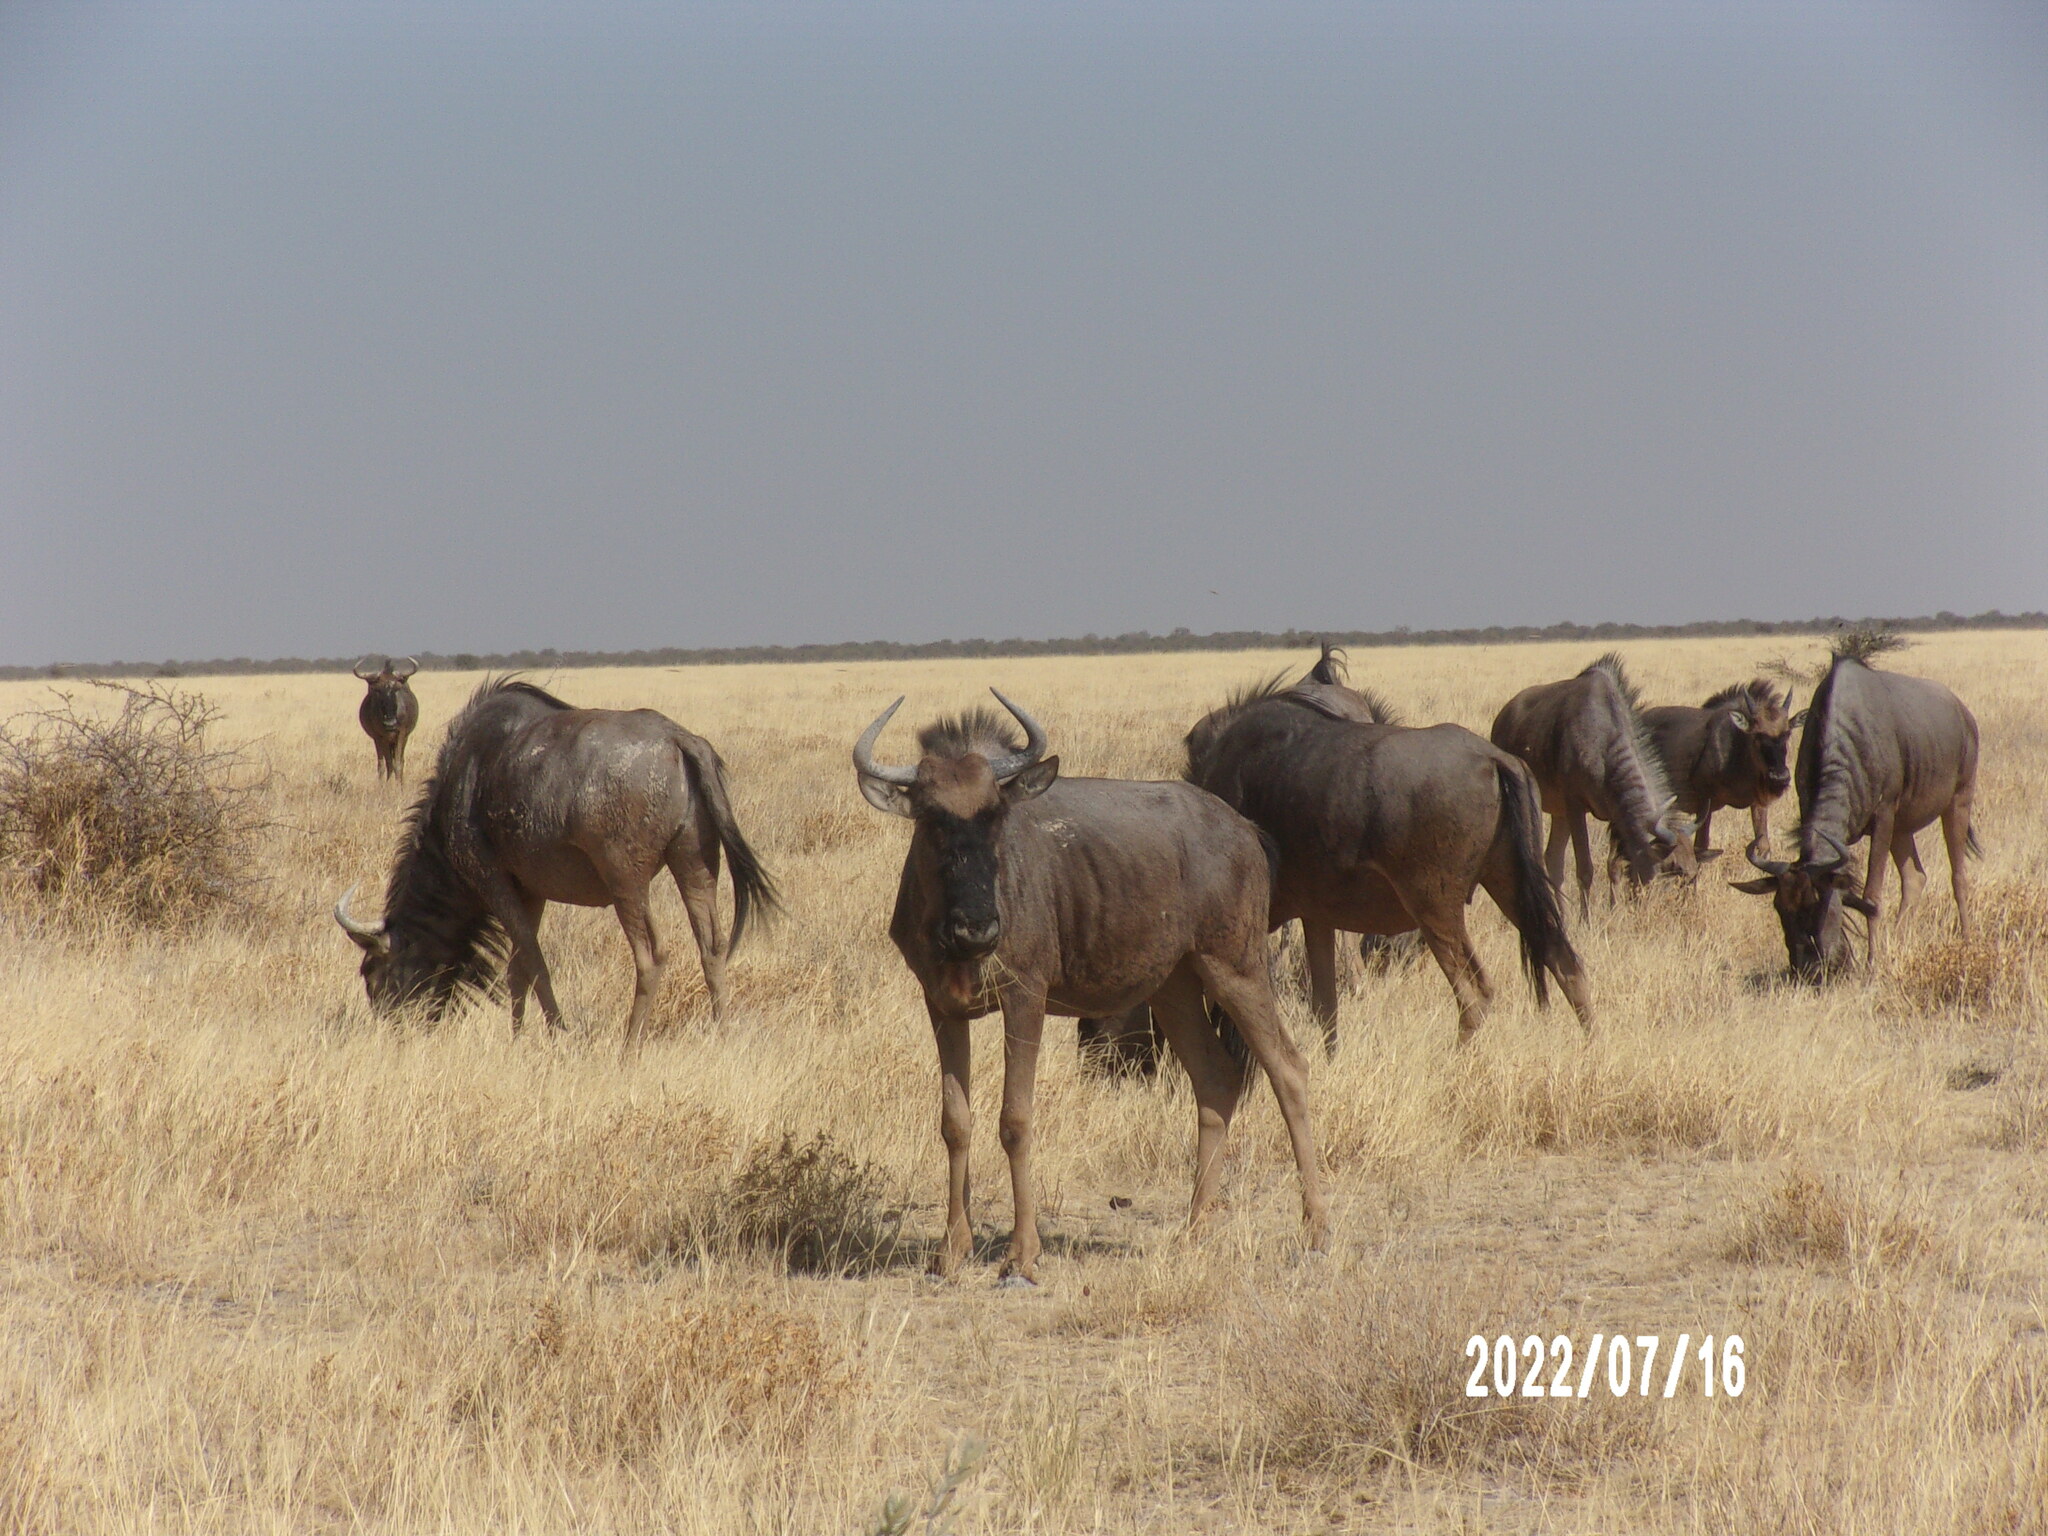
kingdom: Animalia
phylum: Chordata
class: Mammalia
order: Artiodactyla
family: Bovidae
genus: Connochaetes
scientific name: Connochaetes taurinus
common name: Blue wildebeest
